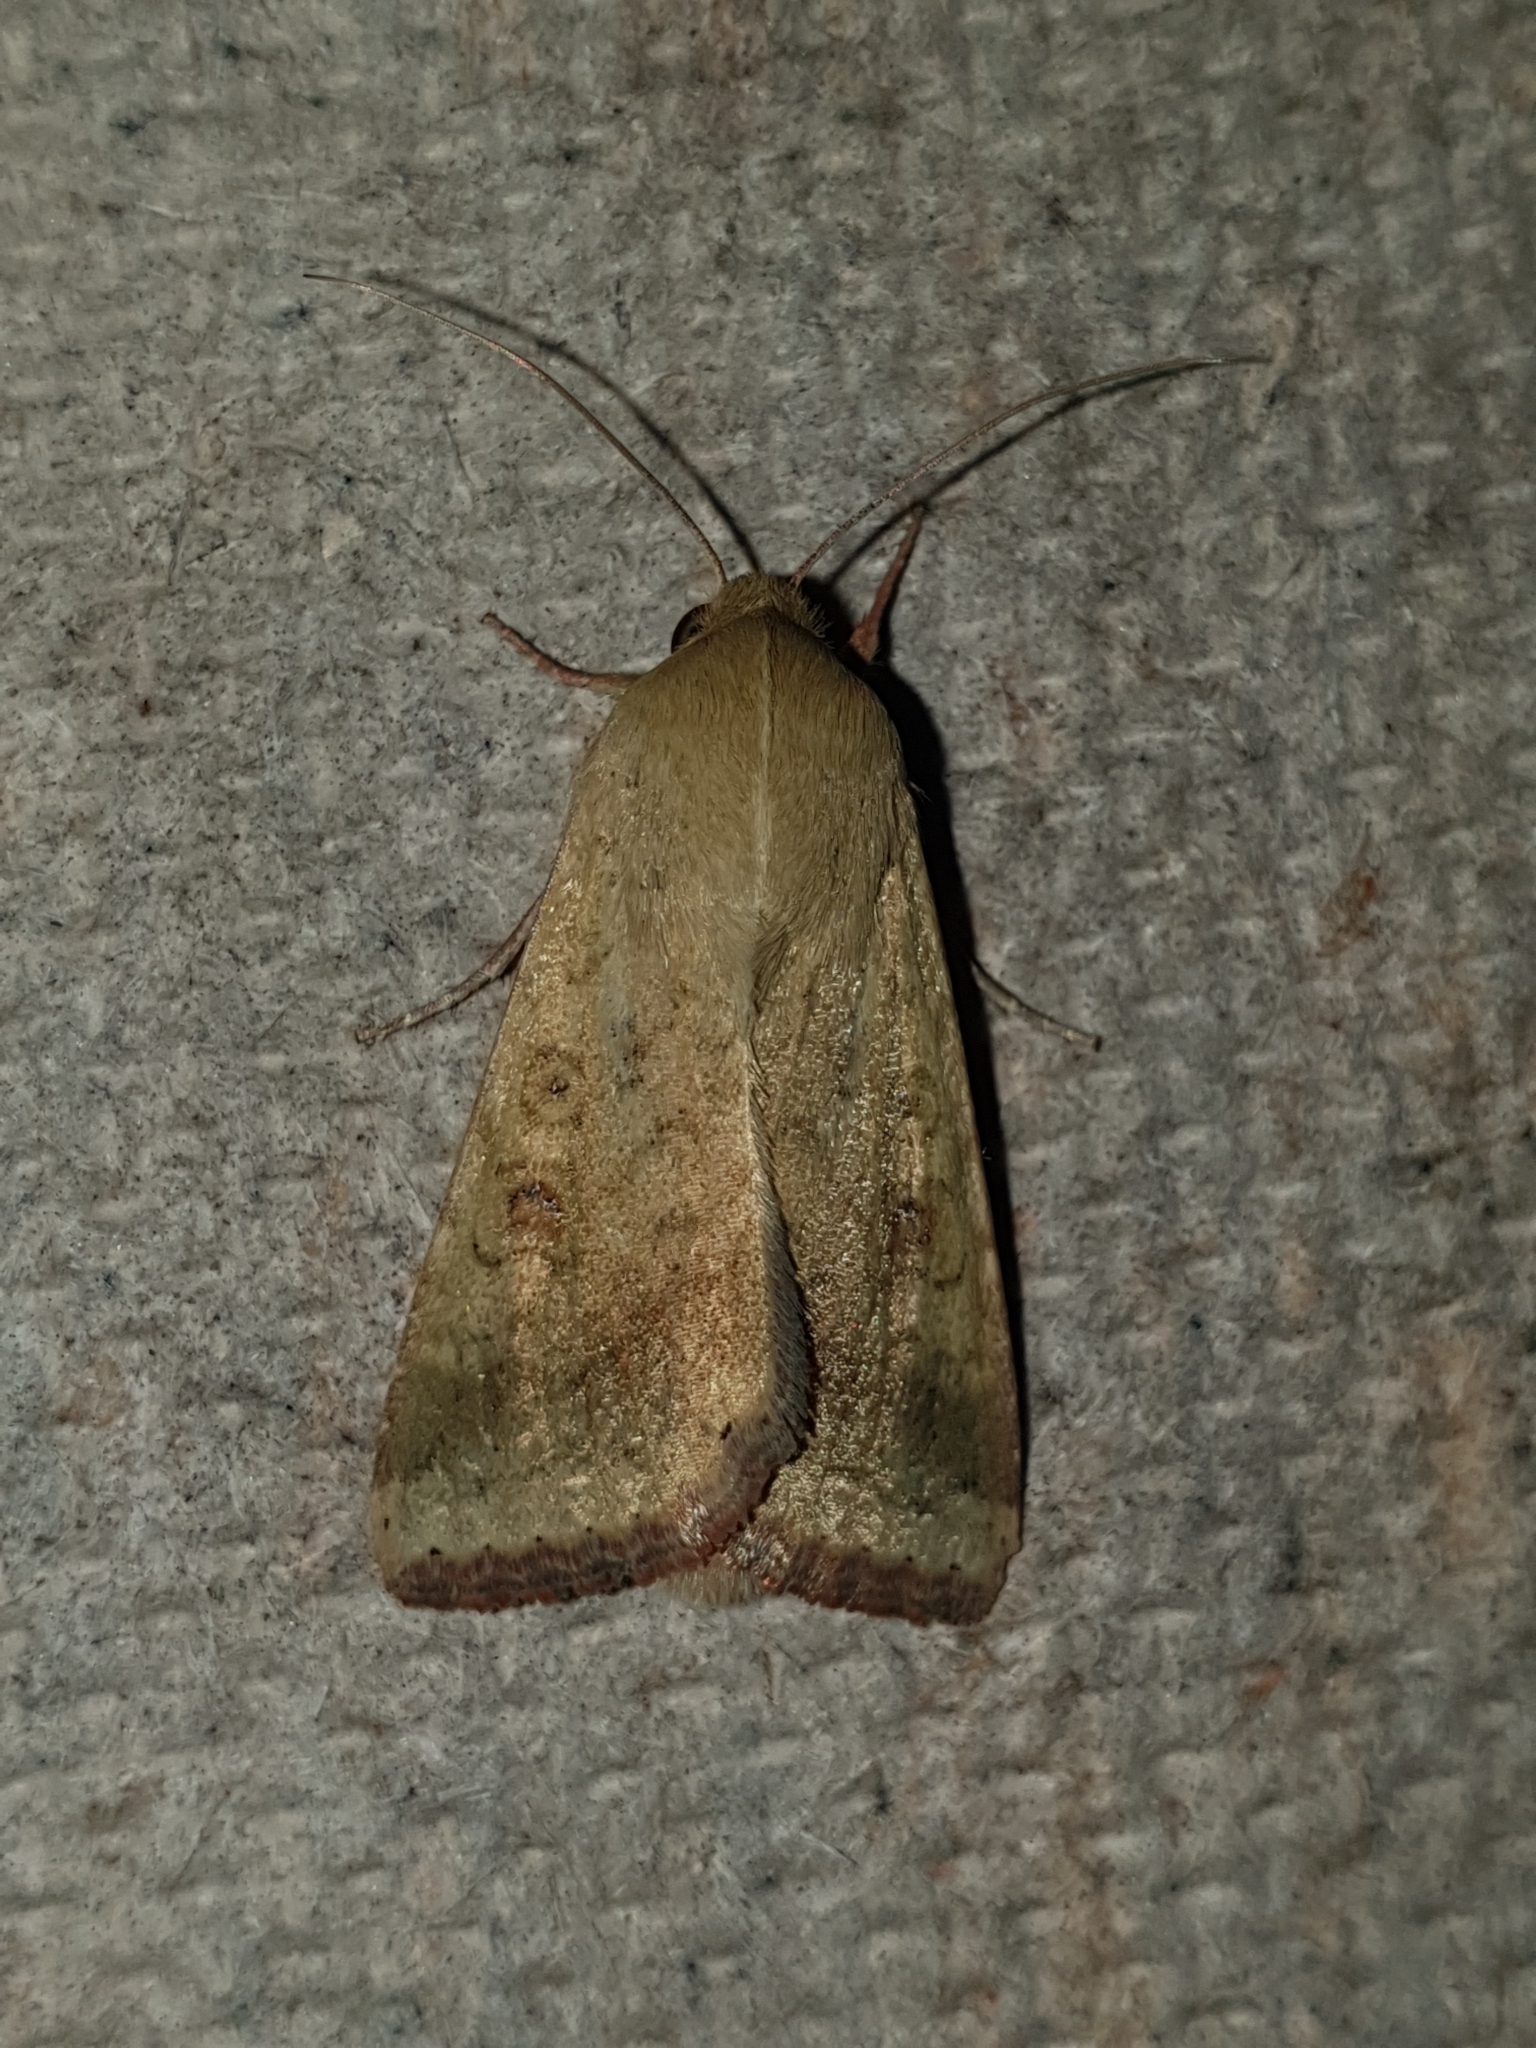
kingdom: Animalia
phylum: Arthropoda
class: Insecta
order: Lepidoptera
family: Noctuidae
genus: Helicoverpa
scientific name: Helicoverpa armigera
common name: Cotton bollworm
